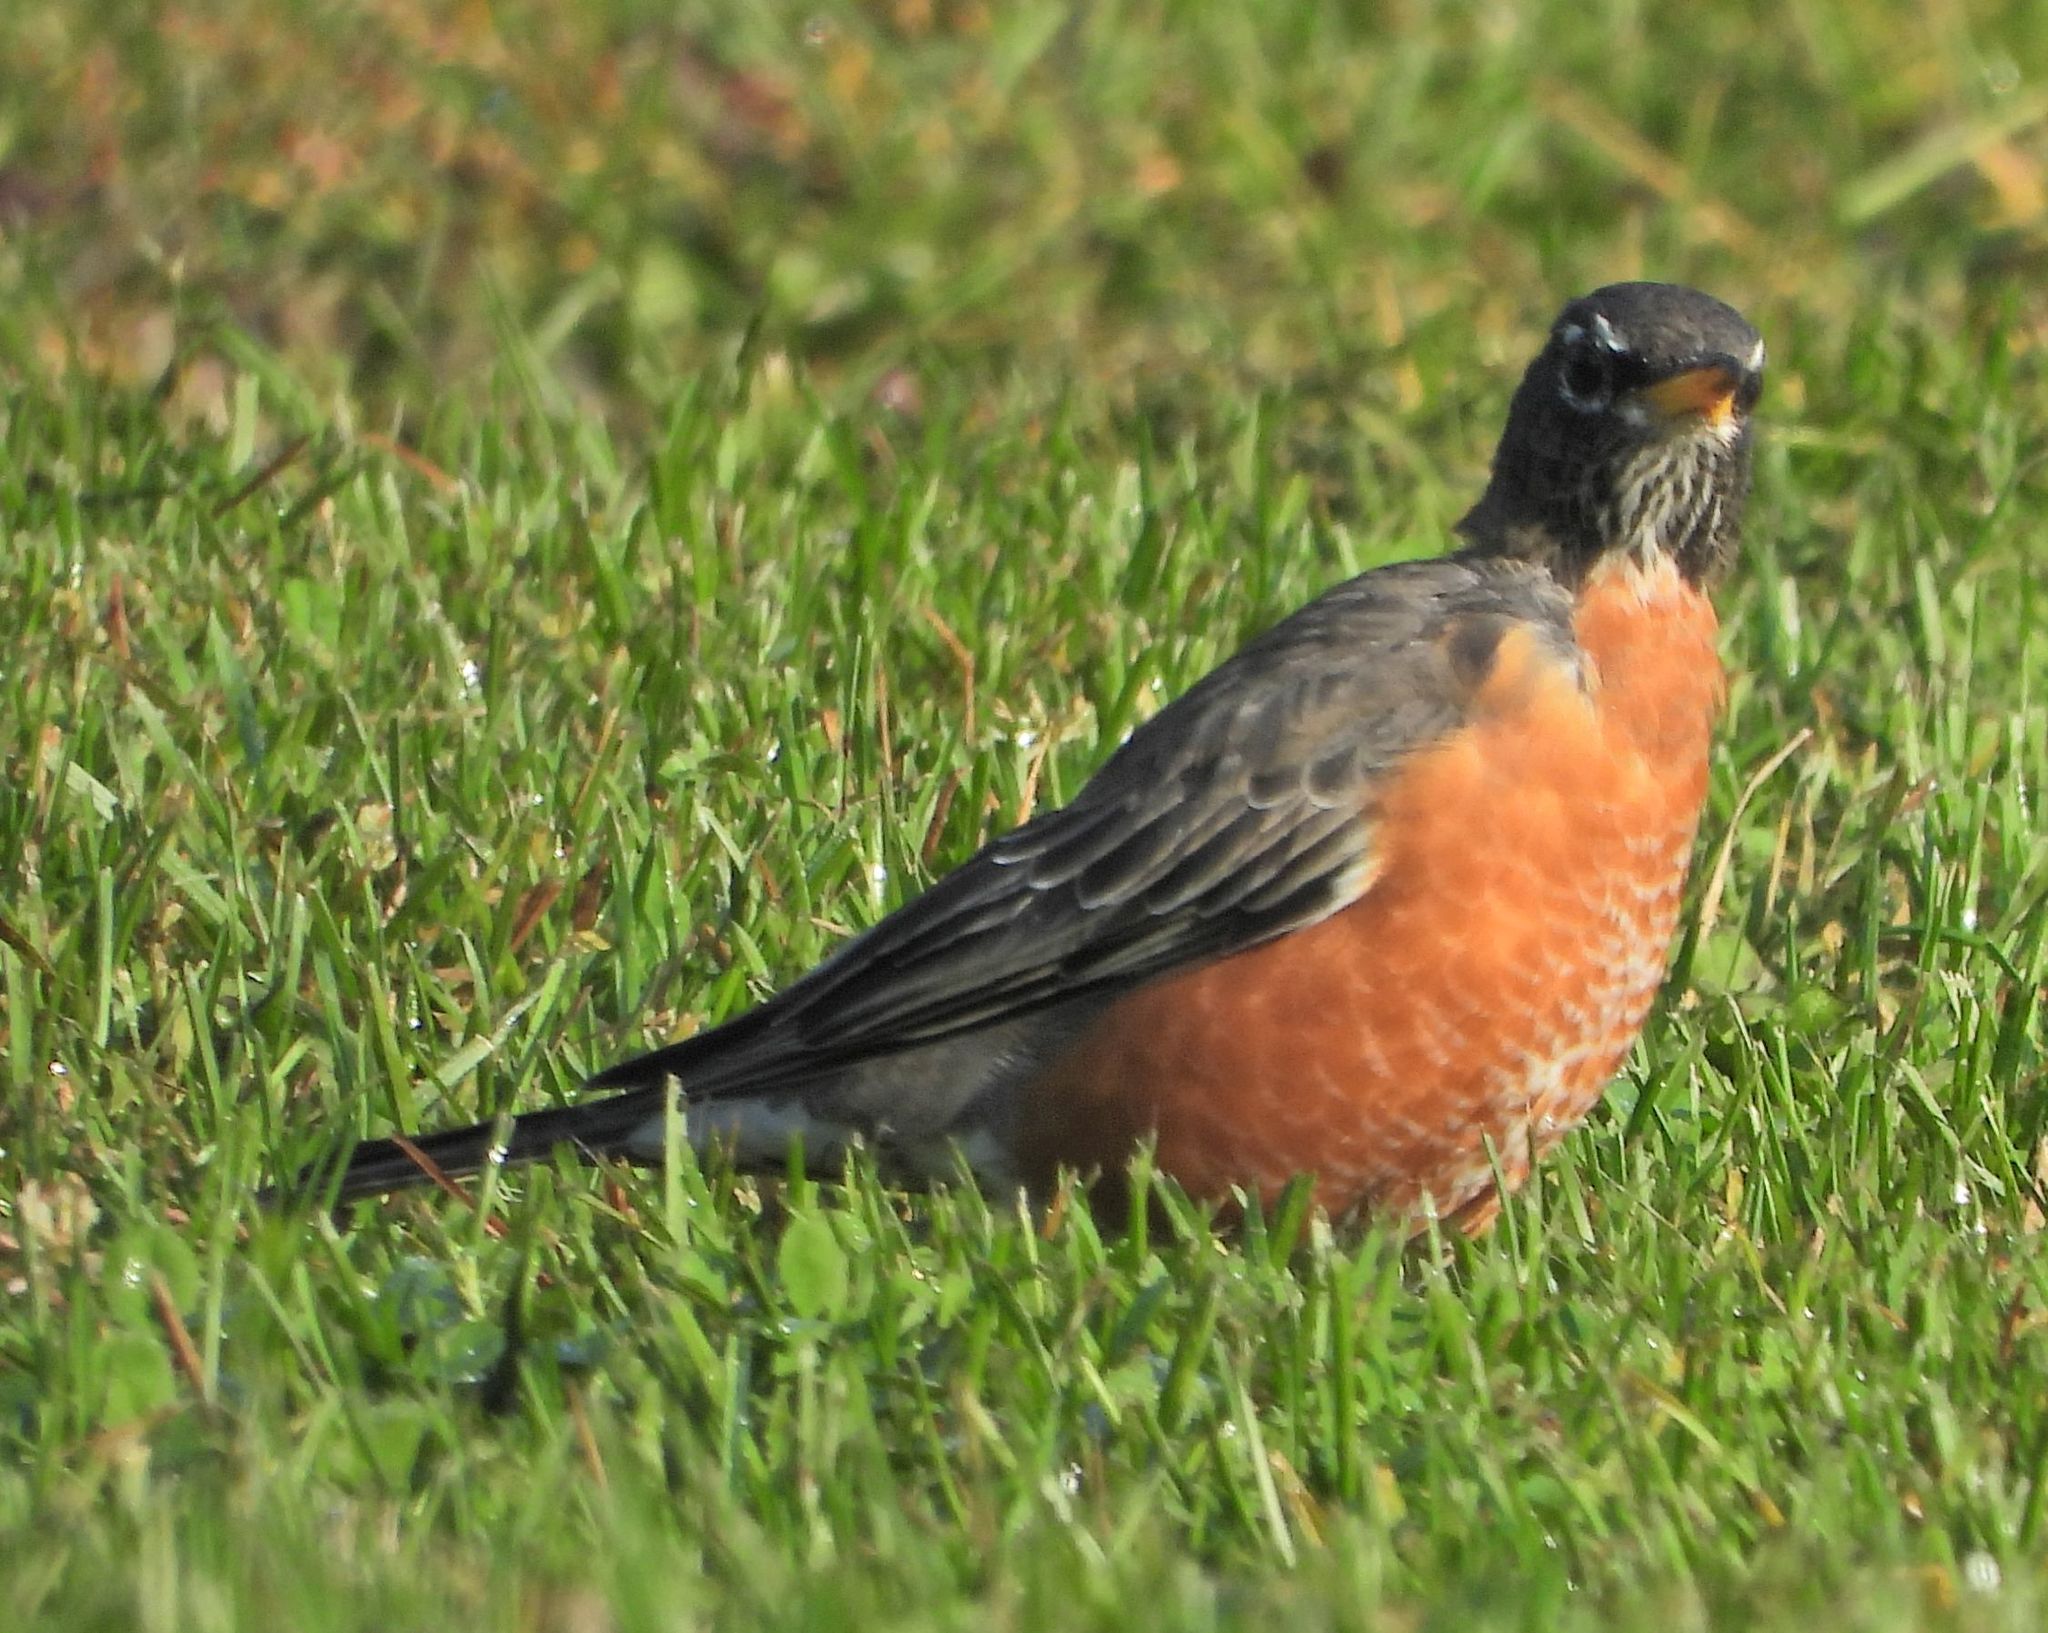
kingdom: Animalia
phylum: Chordata
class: Aves
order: Passeriformes
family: Turdidae
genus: Turdus
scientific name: Turdus migratorius
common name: American robin
